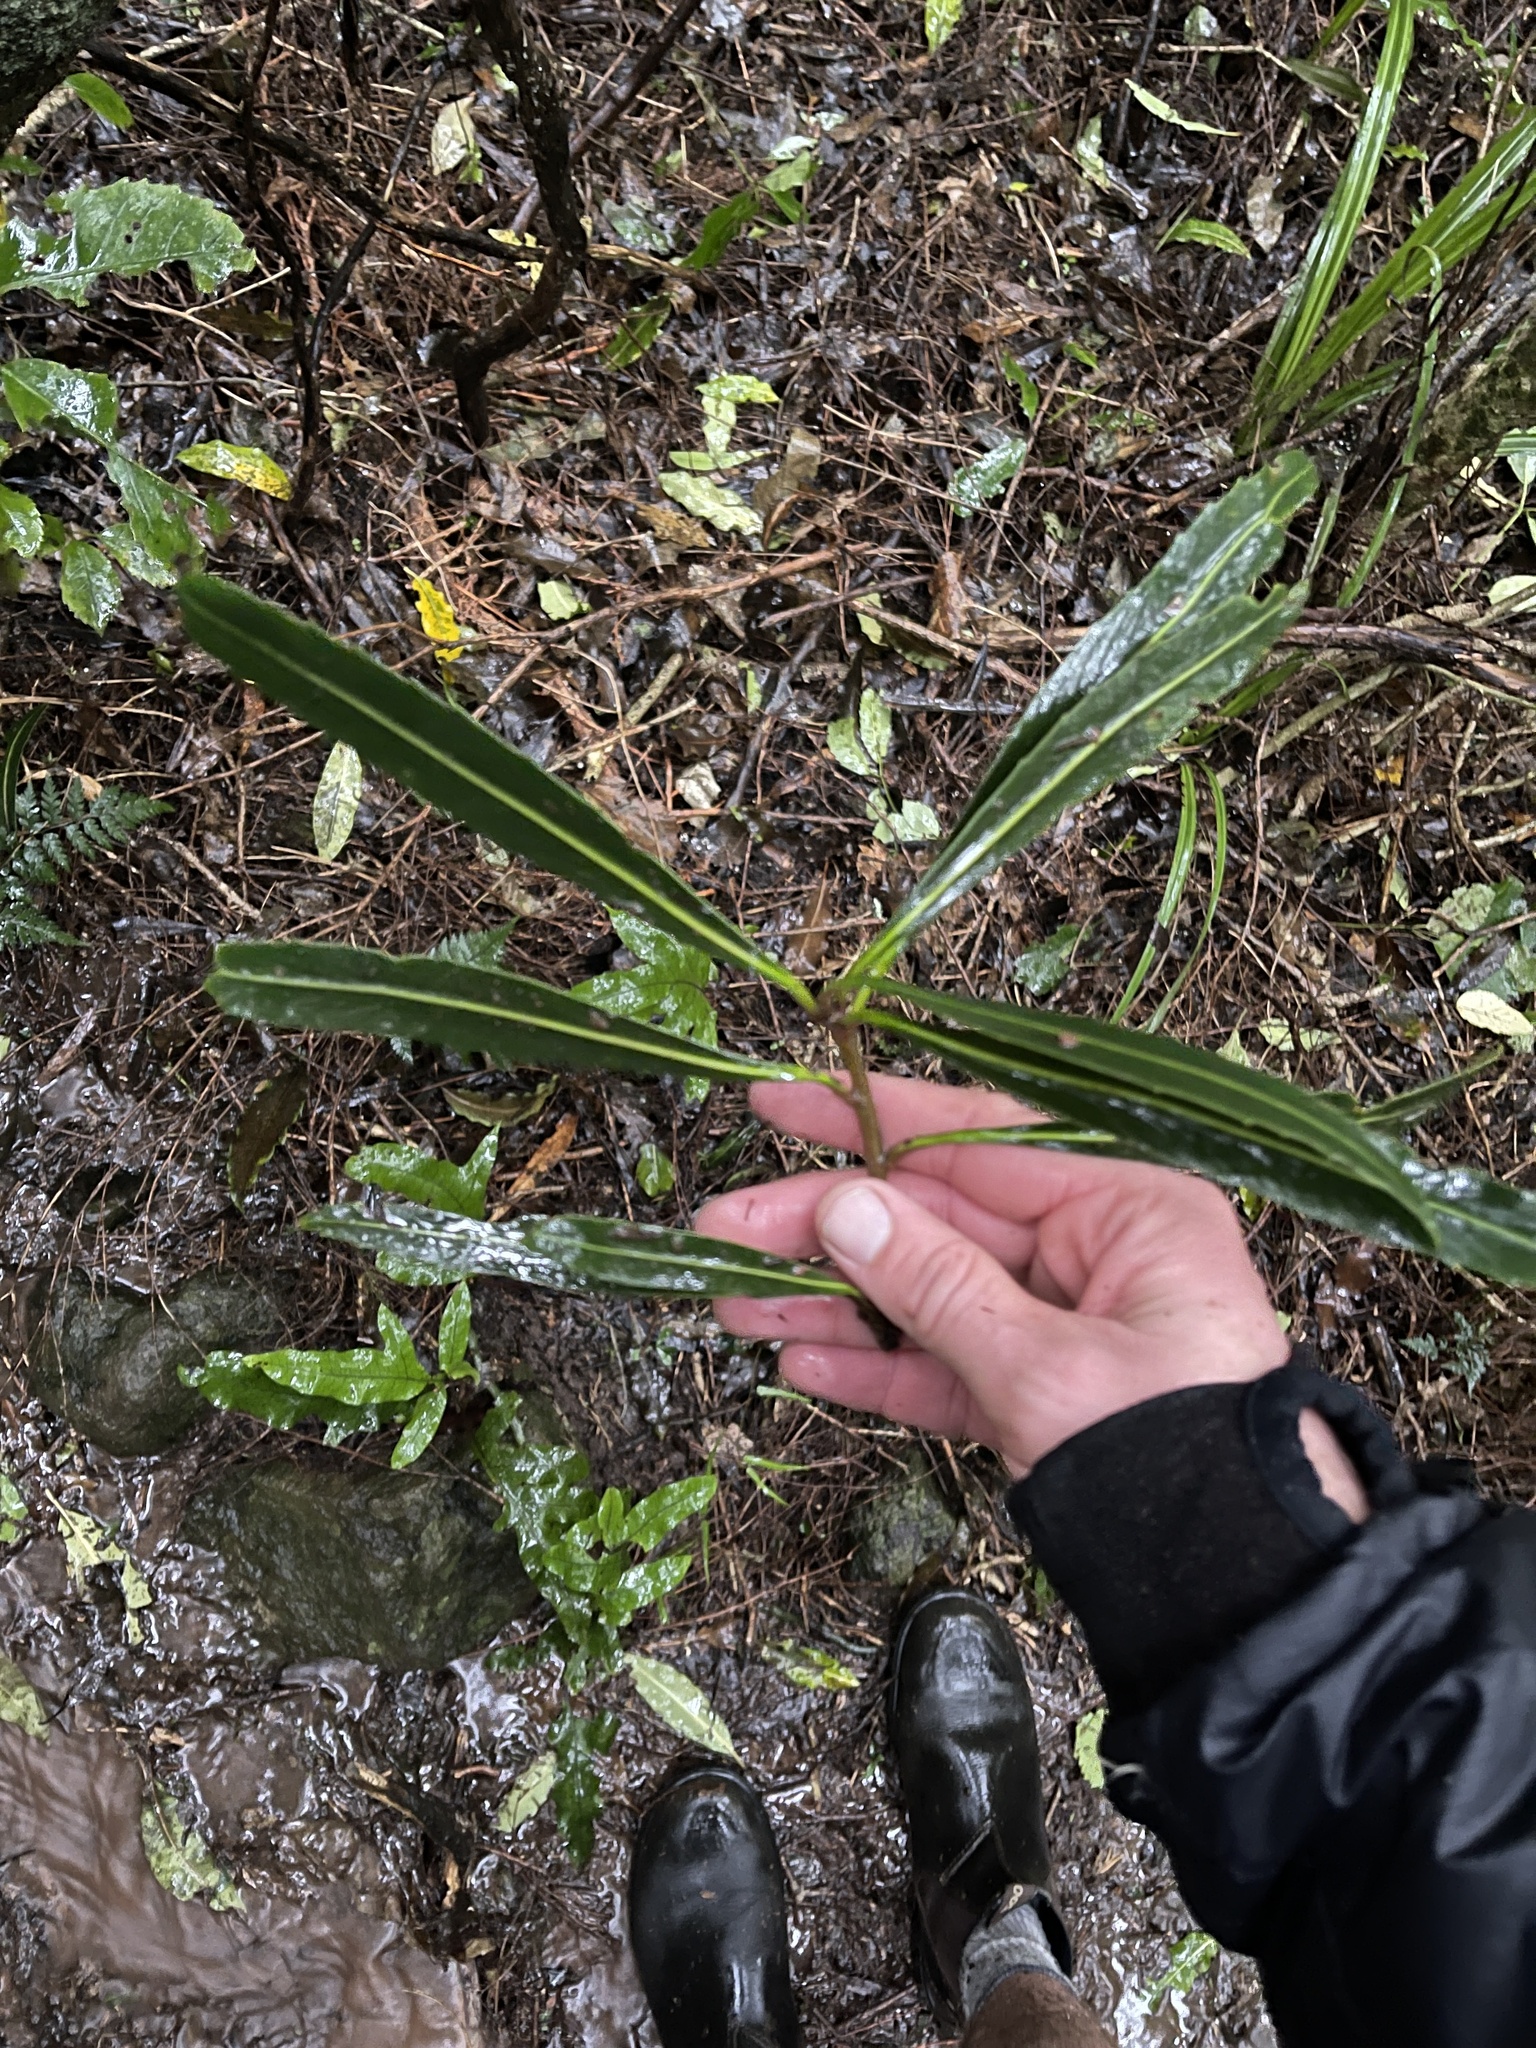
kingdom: Plantae
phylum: Tracheophyta
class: Magnoliopsida
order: Apiales
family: Araliaceae
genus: Pseudopanax
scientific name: Pseudopanax crassifolius
